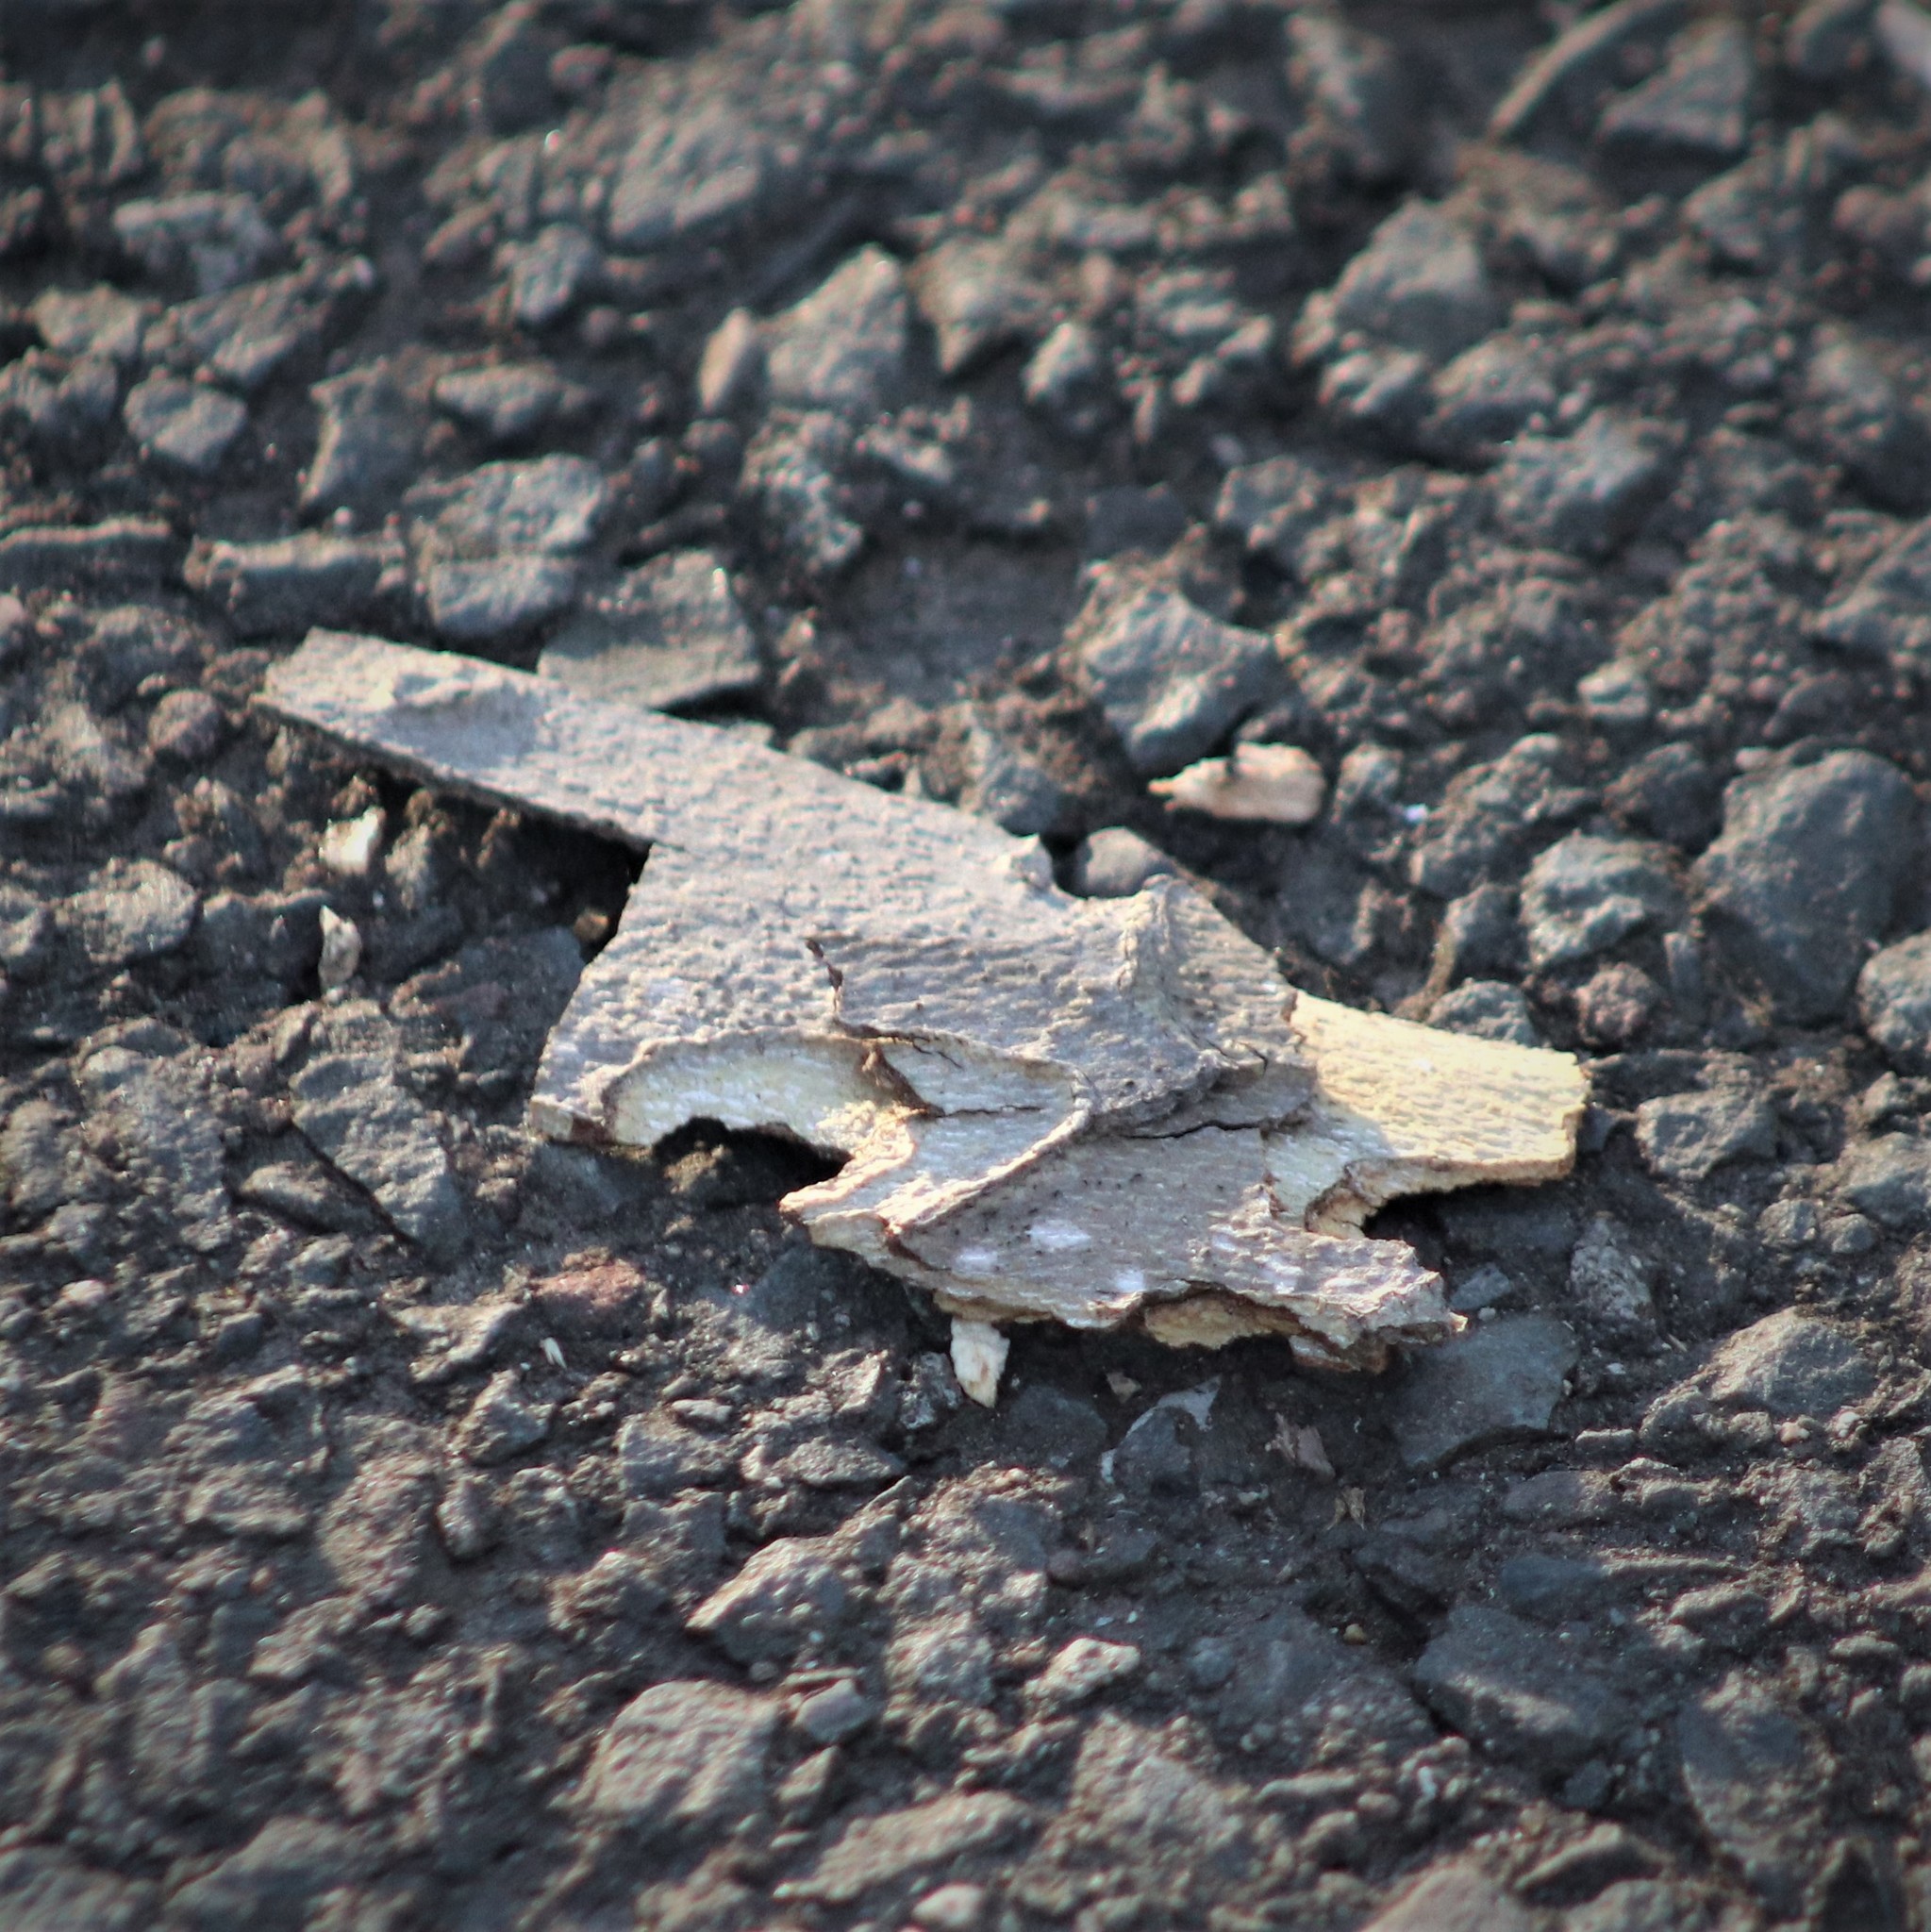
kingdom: Animalia
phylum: Chordata
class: Aves
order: Piciformes
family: Picidae
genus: Leuconotopicus
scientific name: Leuconotopicus villosus
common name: Hairy woodpecker
